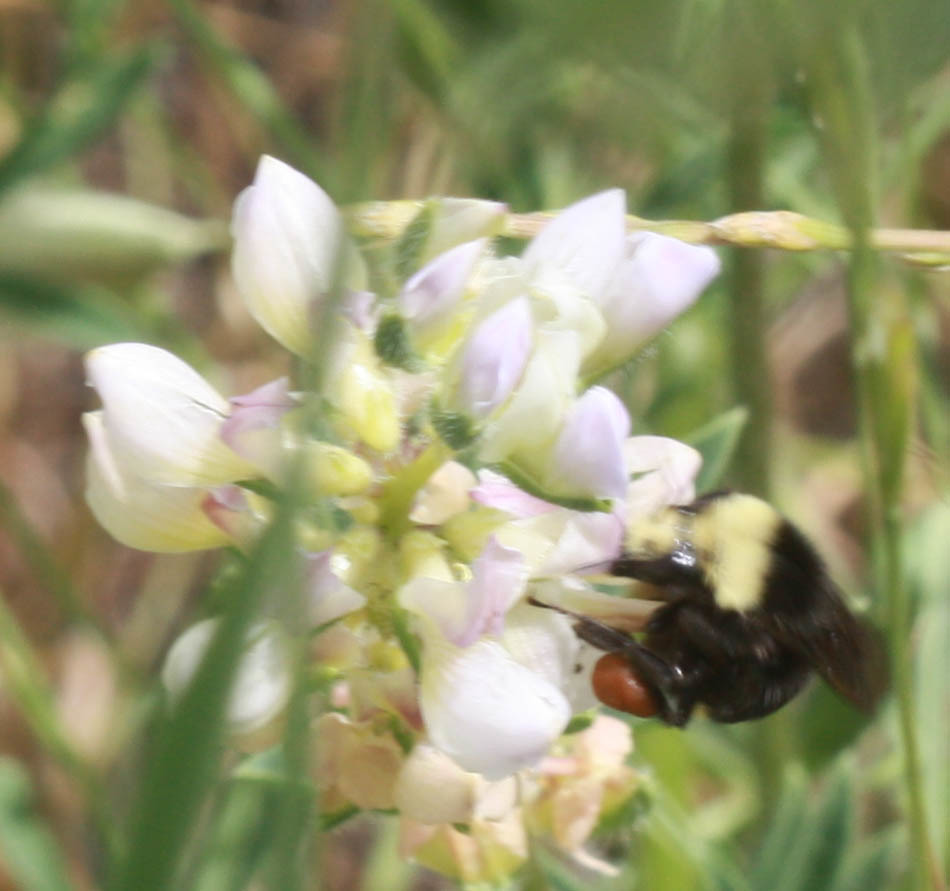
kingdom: Animalia
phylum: Arthropoda
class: Insecta
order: Hymenoptera
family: Apidae
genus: Bombus
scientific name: Bombus vosnesenskii
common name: Vosnesensky bumble bee
